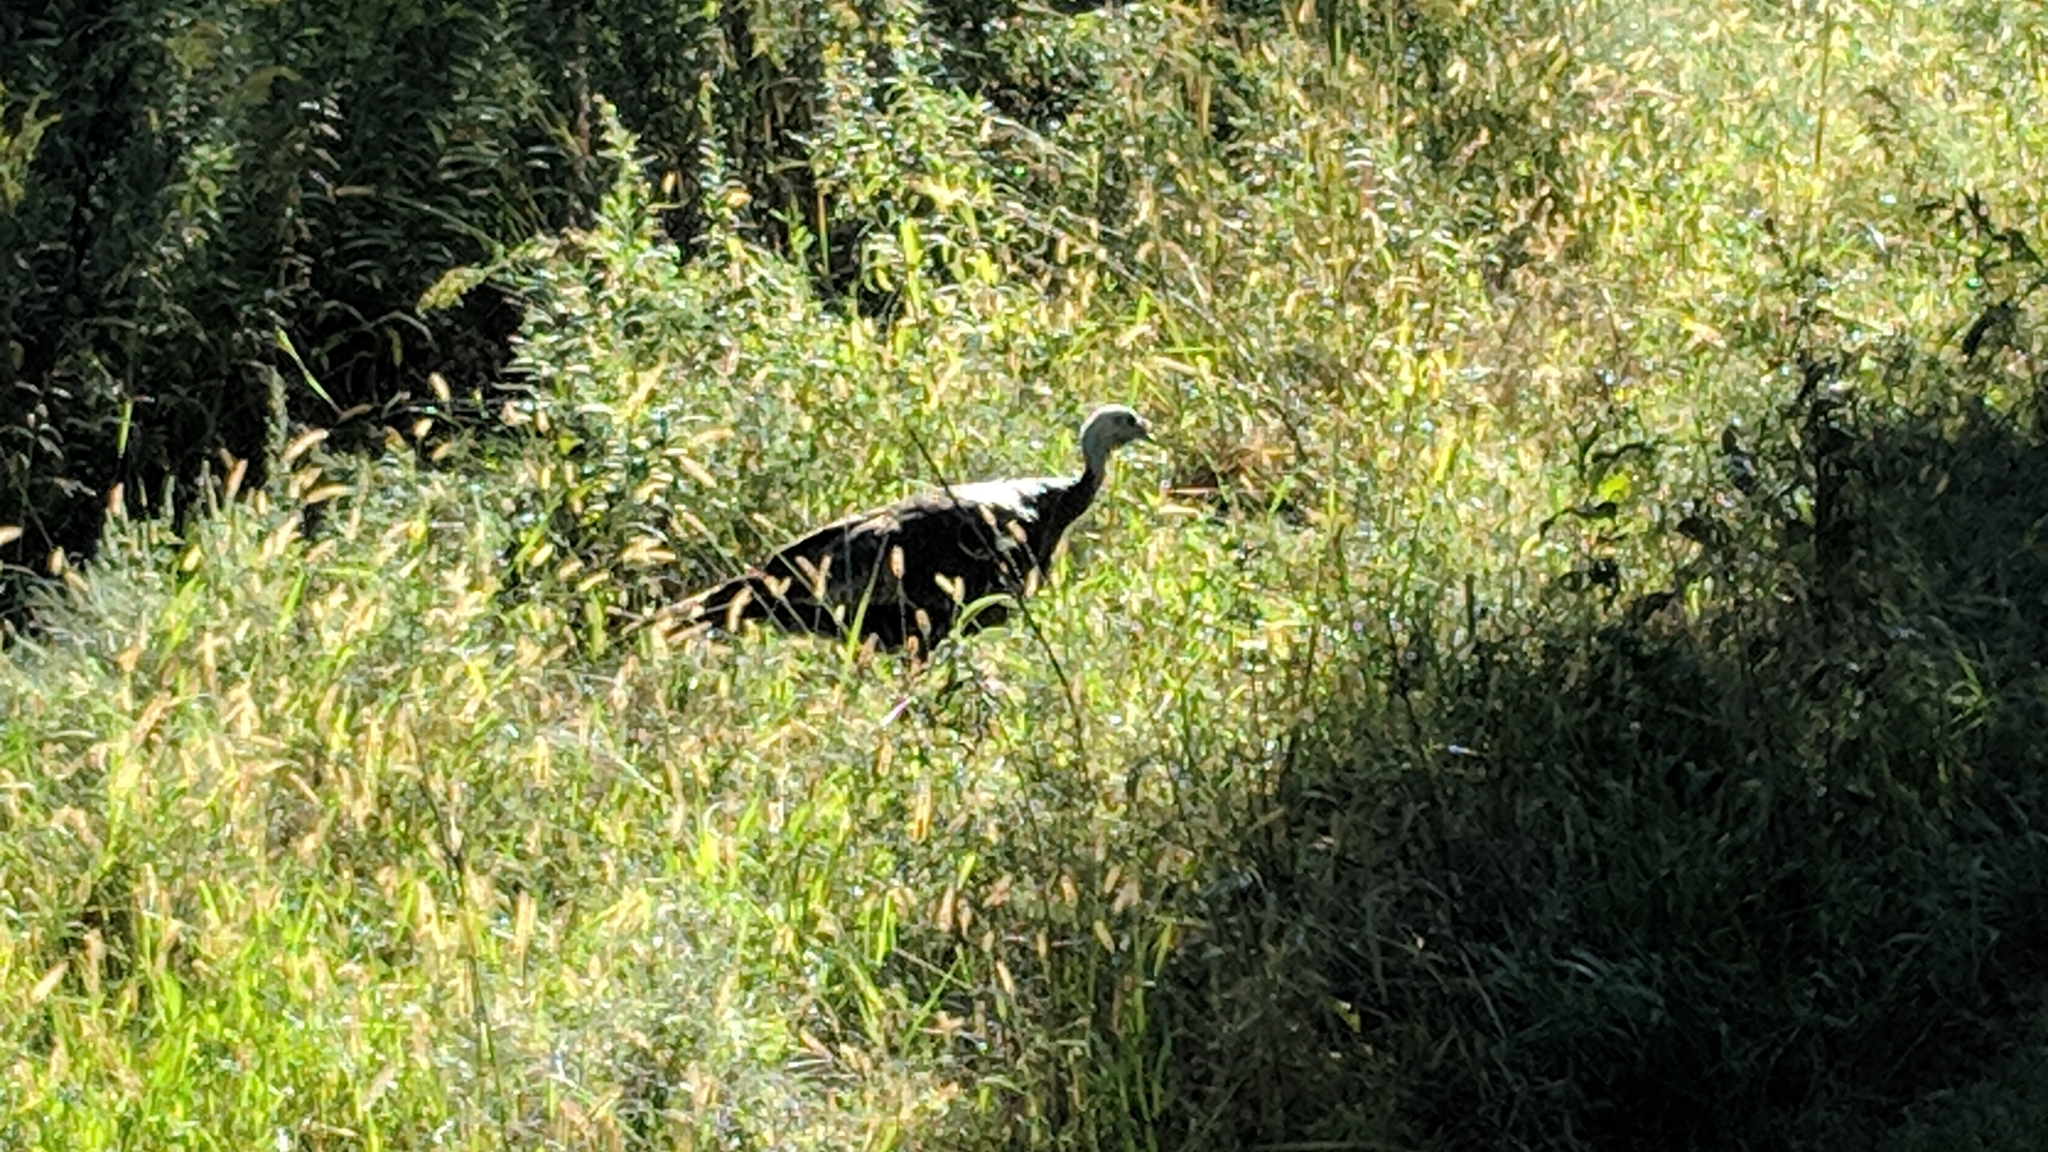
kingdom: Animalia
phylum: Chordata
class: Aves
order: Galliformes
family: Phasianidae
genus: Meleagris
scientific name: Meleagris gallopavo
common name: Wild turkey
